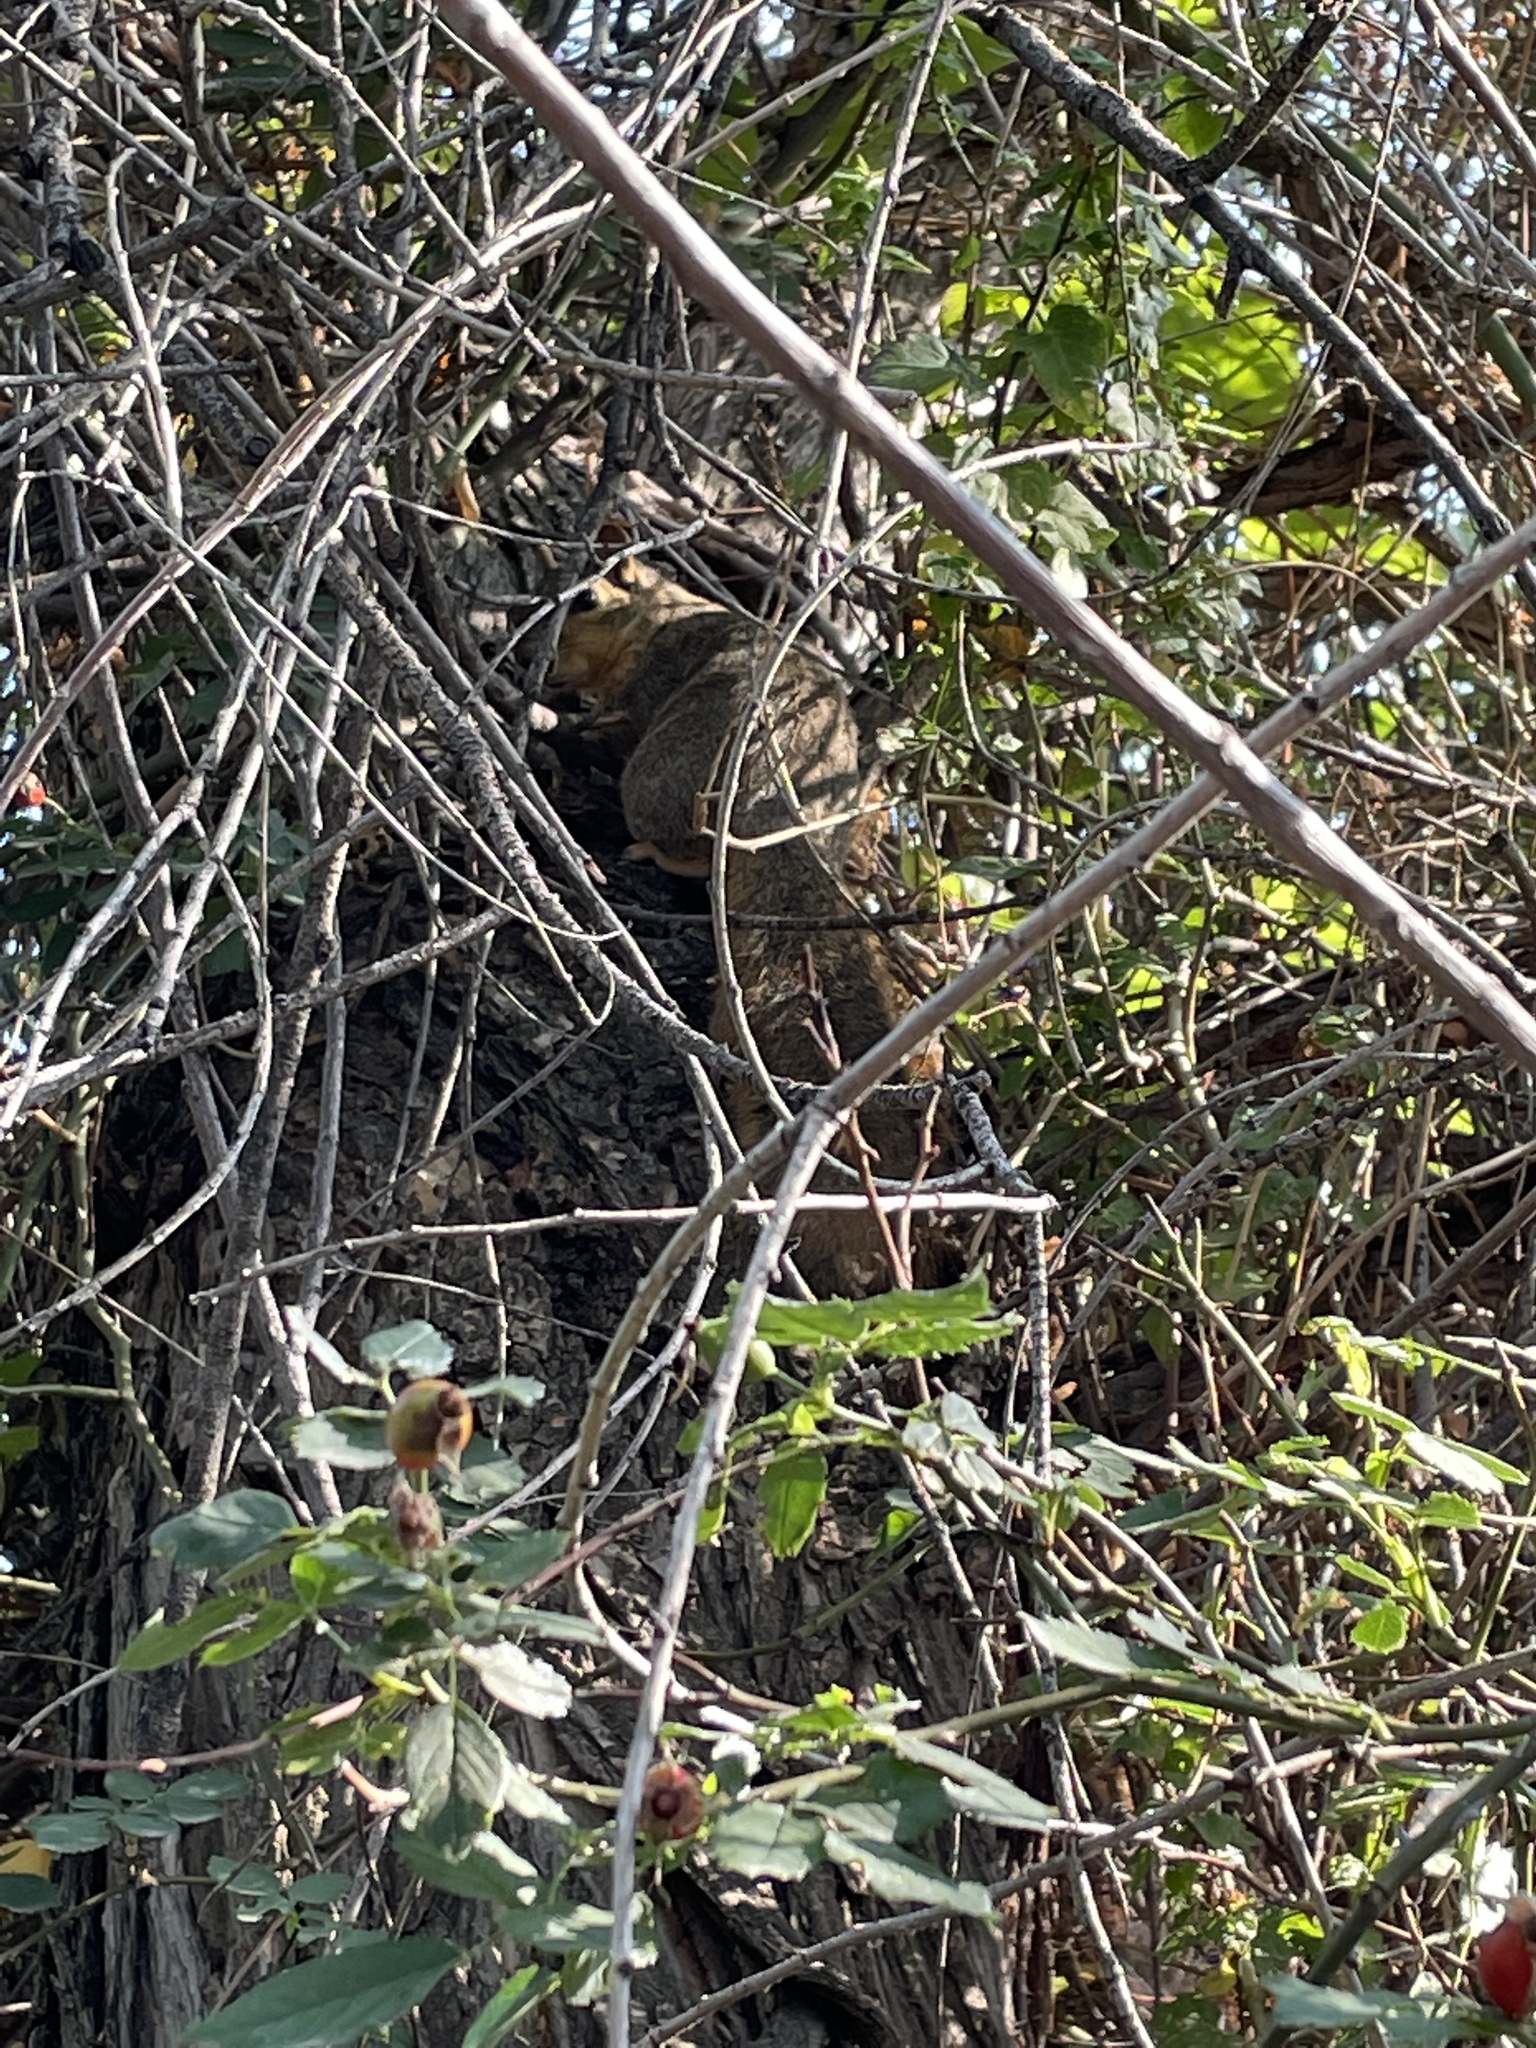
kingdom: Animalia
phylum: Chordata
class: Mammalia
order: Rodentia
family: Sciuridae
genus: Sciurus
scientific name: Sciurus niger
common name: Fox squirrel
